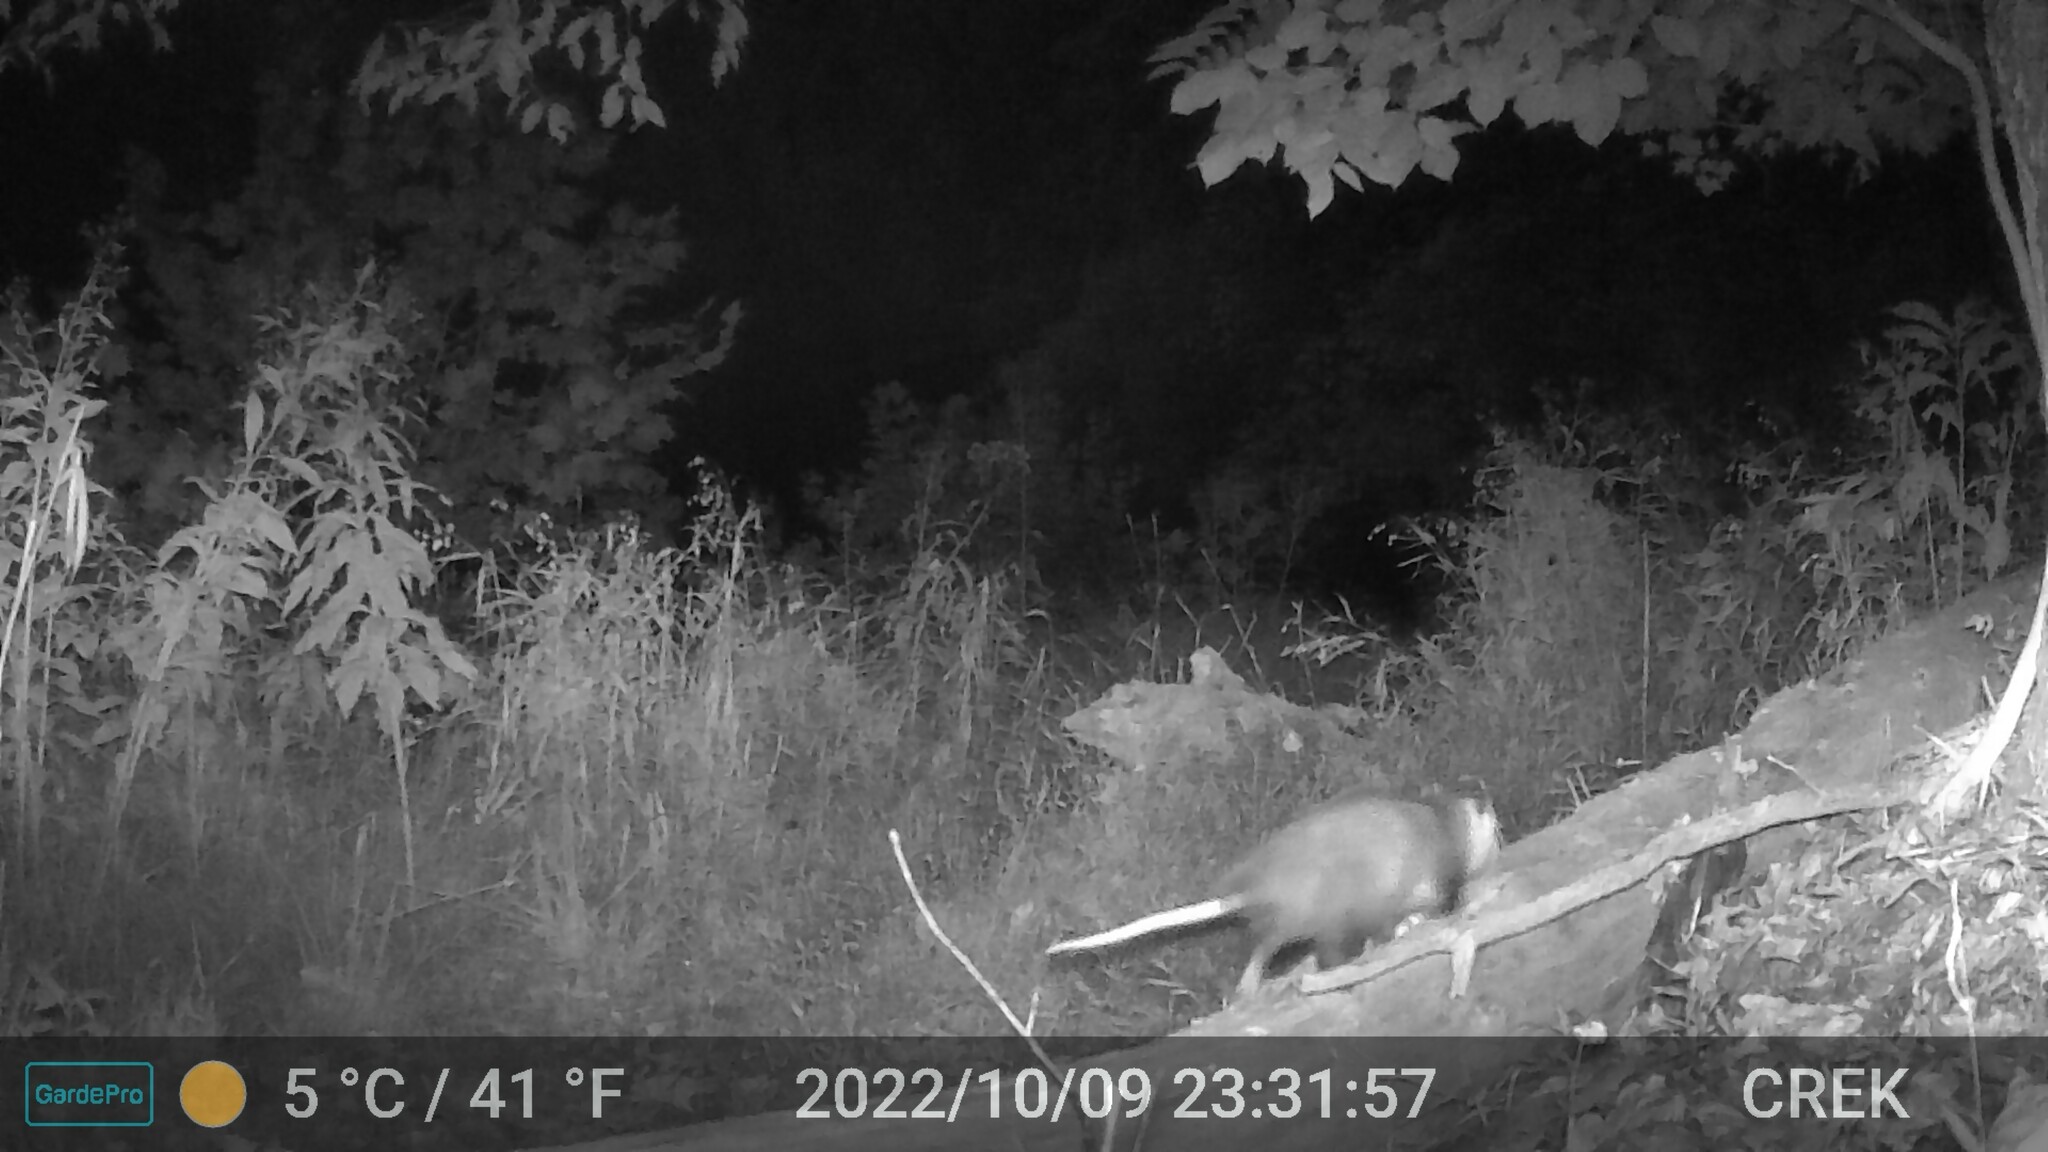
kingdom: Animalia
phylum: Chordata
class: Mammalia
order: Didelphimorphia
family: Didelphidae
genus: Didelphis
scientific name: Didelphis virginiana
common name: Virginia opossum
